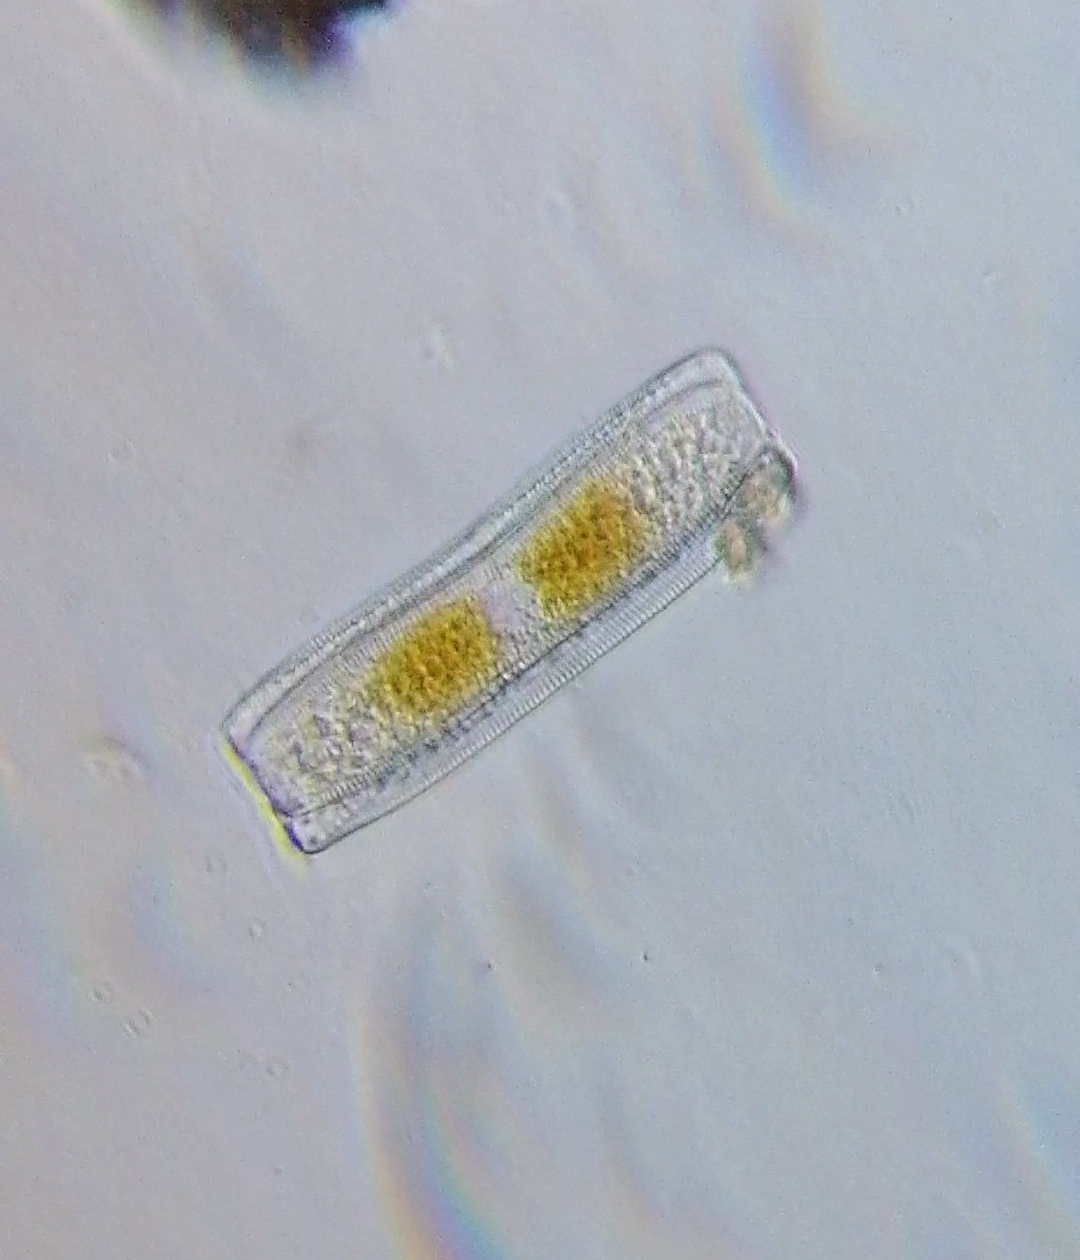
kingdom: Chromista
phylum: Ochrophyta
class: Bacillariophyceae
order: Bacillariales
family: Bacillariaceae
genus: Hantzschia
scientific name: Hantzschia
